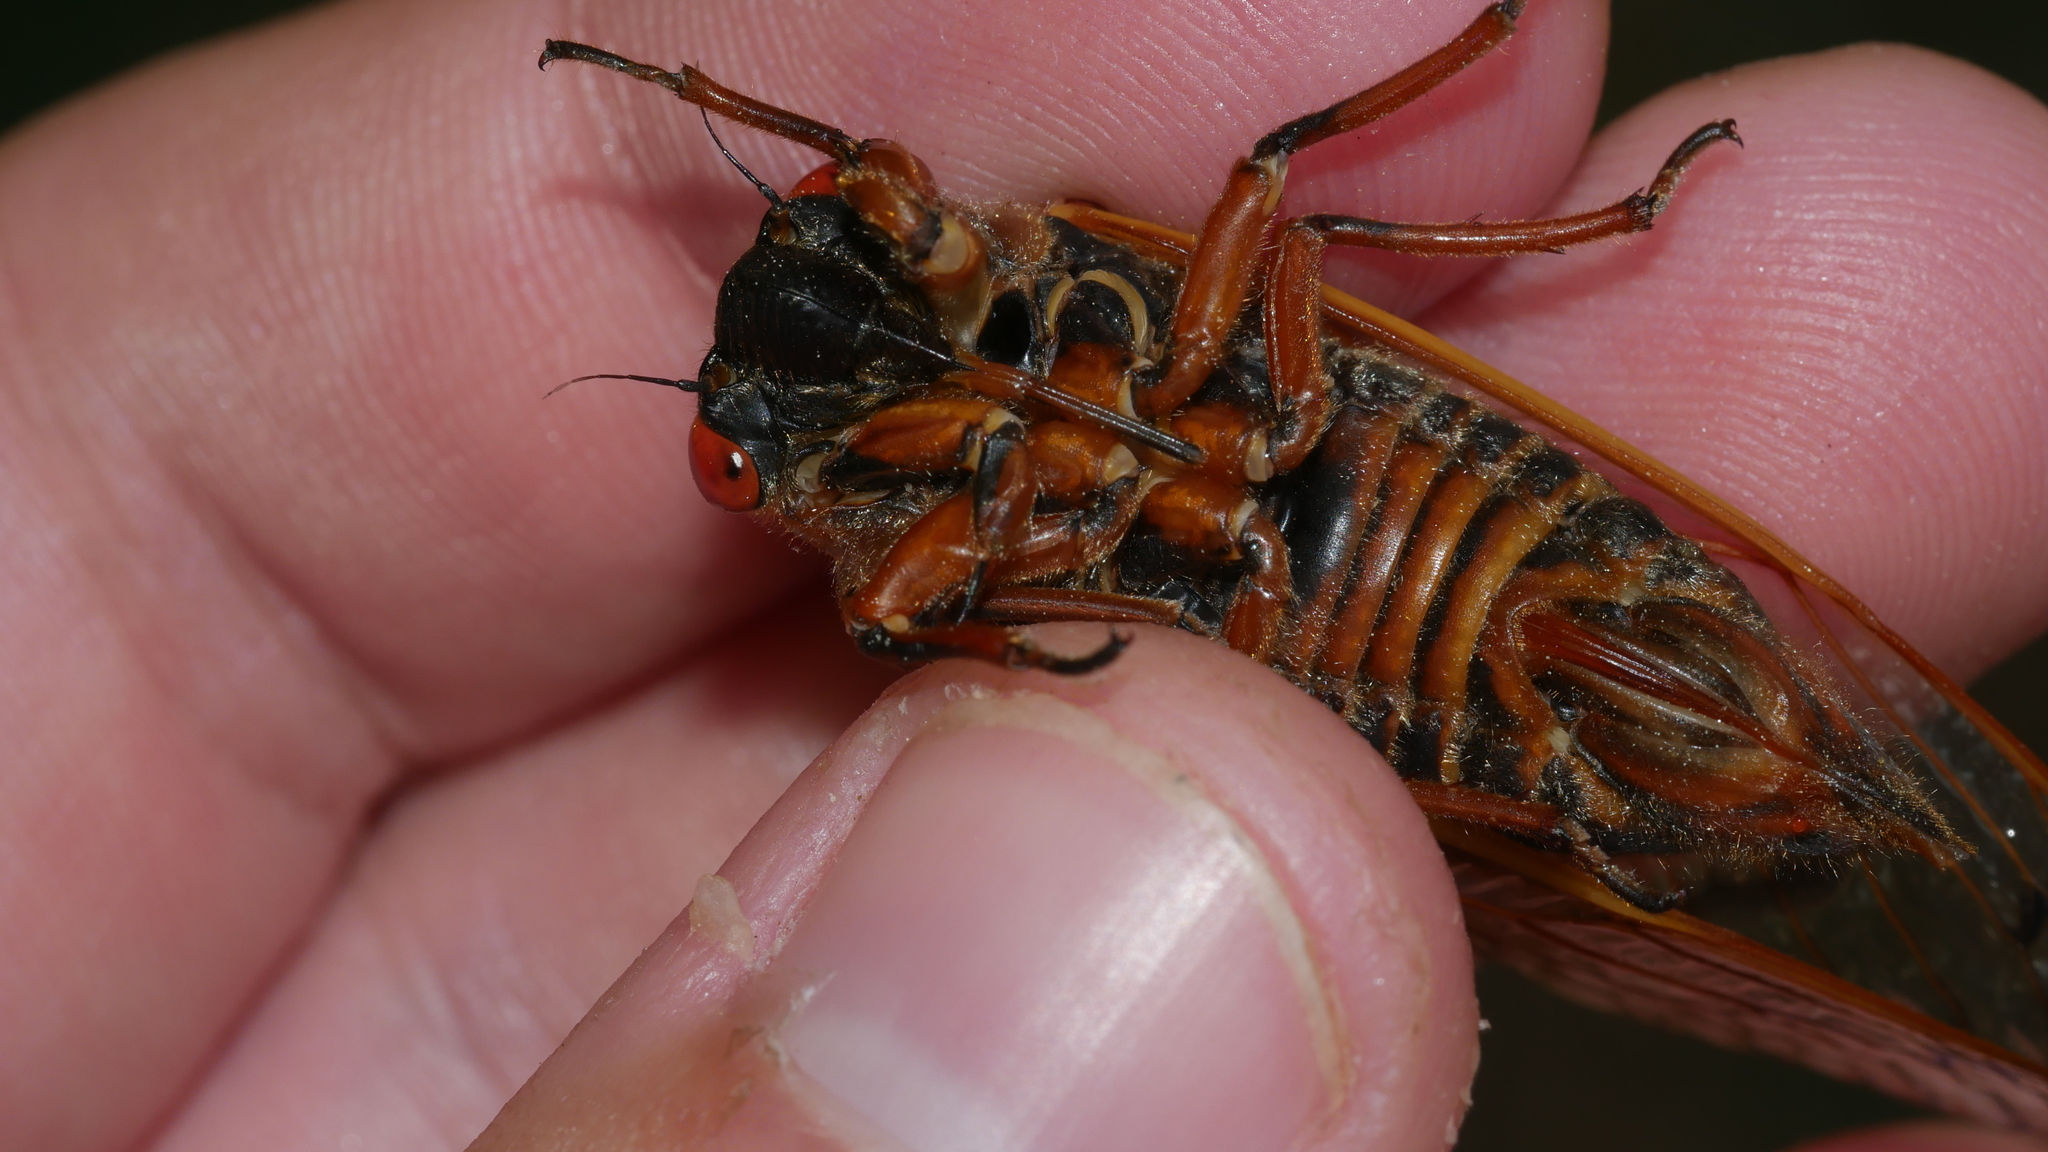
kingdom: Animalia
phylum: Arthropoda
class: Insecta
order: Hemiptera
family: Cicadidae
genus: Magicicada
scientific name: Magicicada septendecim
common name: Periodical cicada
